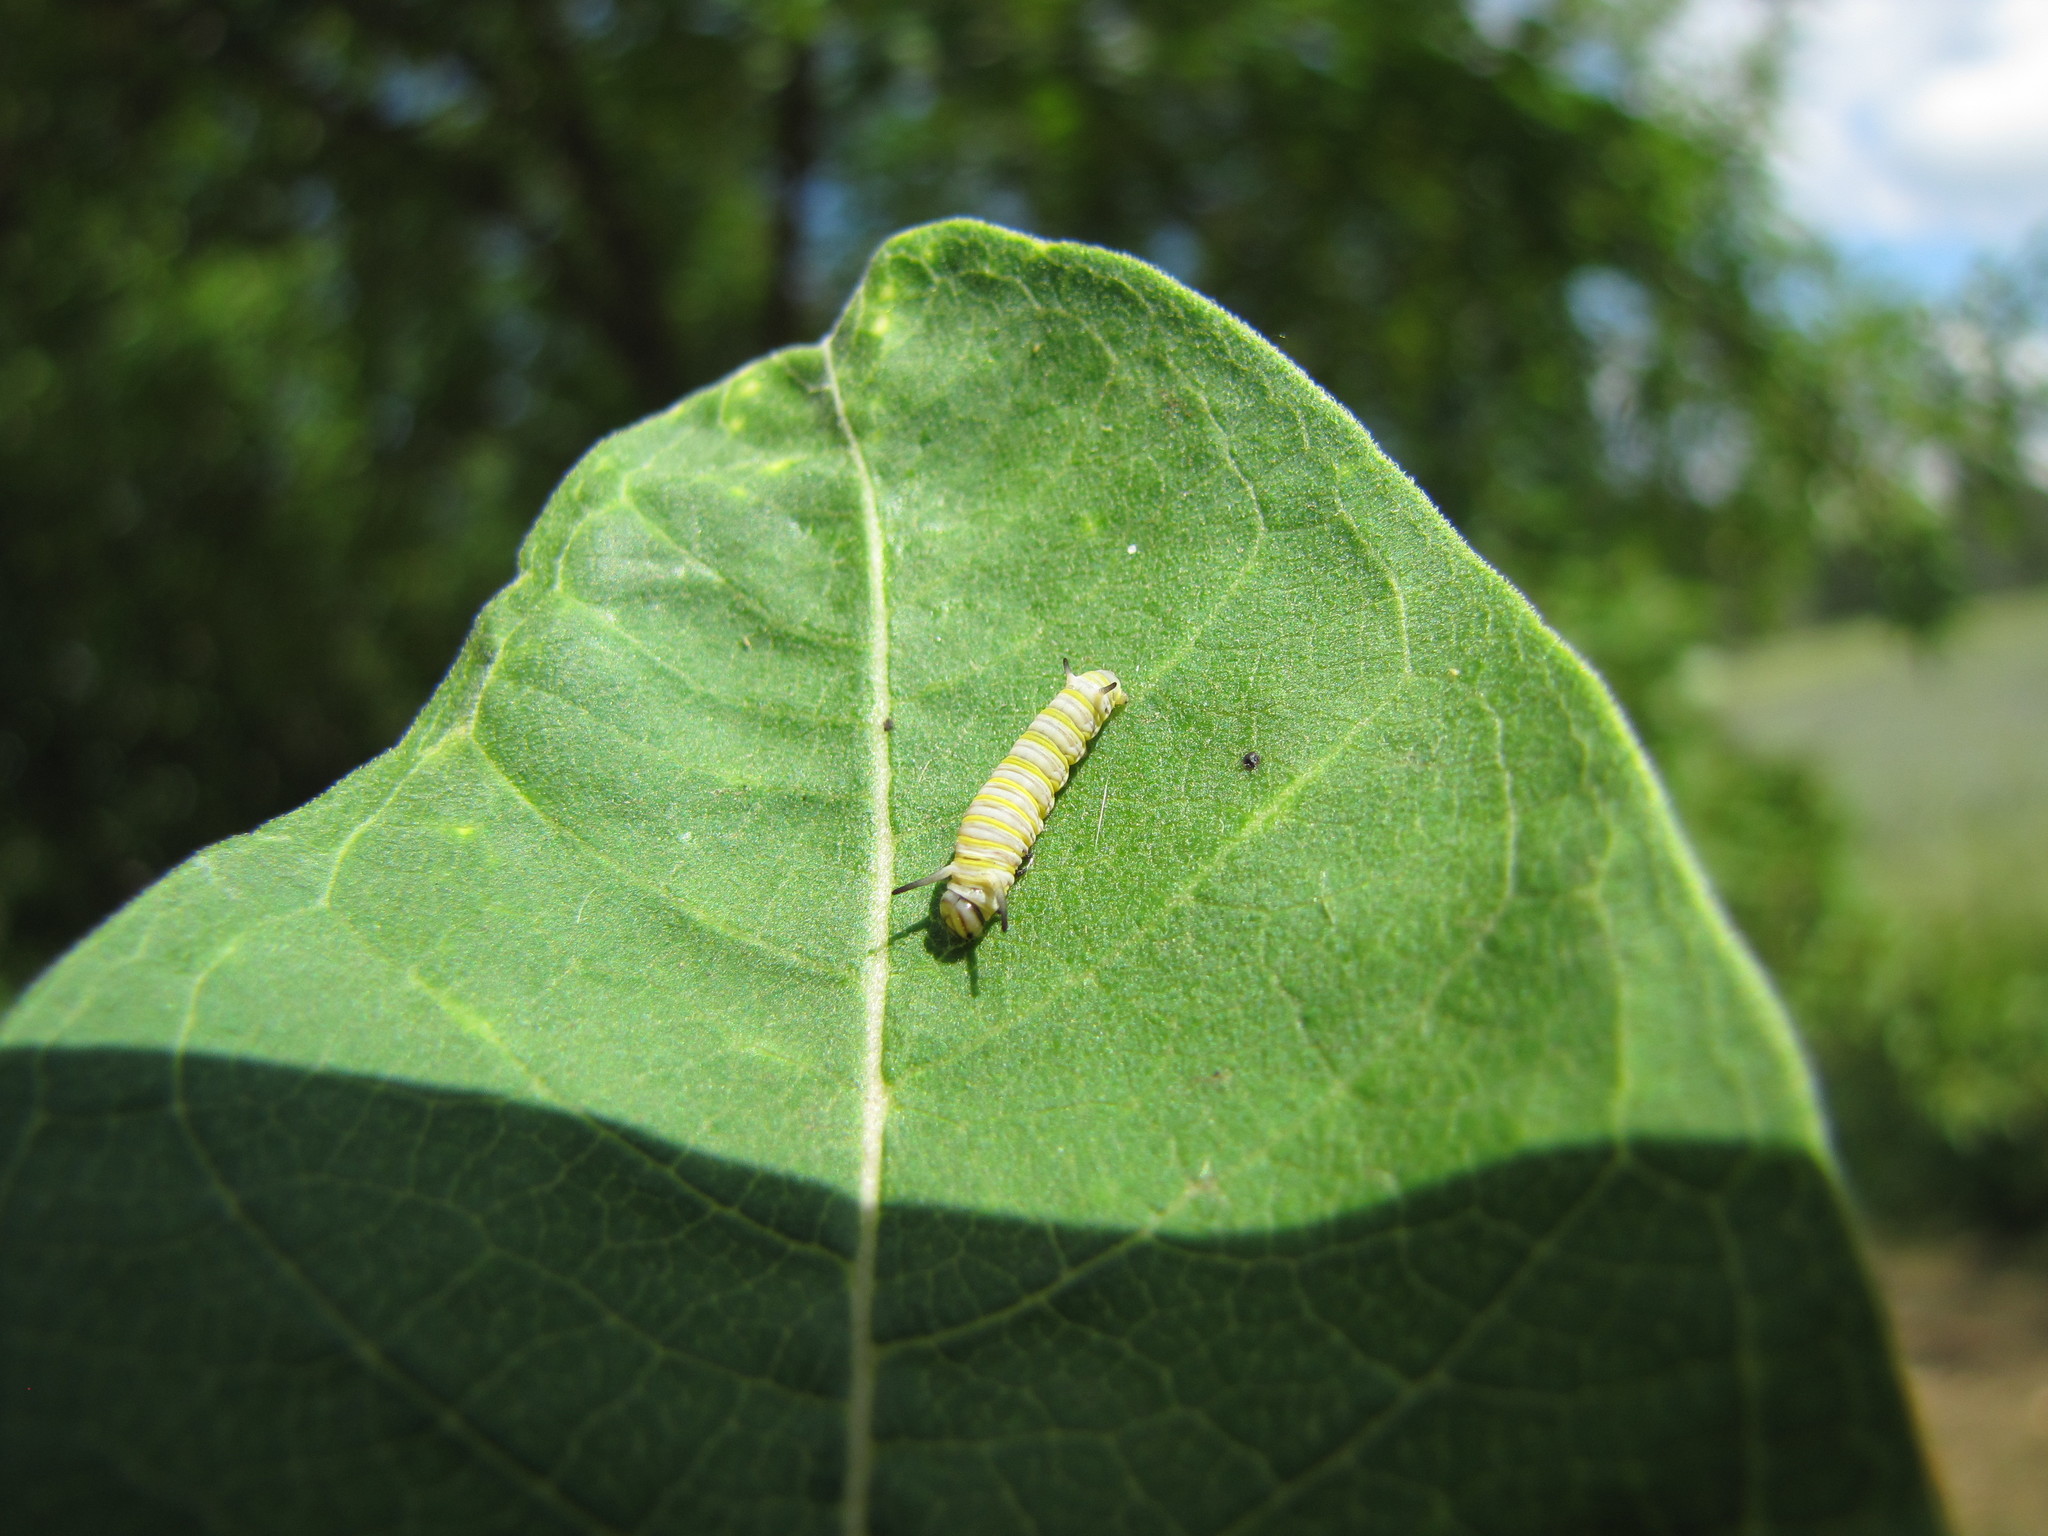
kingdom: Animalia
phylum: Arthropoda
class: Insecta
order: Lepidoptera
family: Nymphalidae
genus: Danaus
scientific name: Danaus plexippus
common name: Monarch
